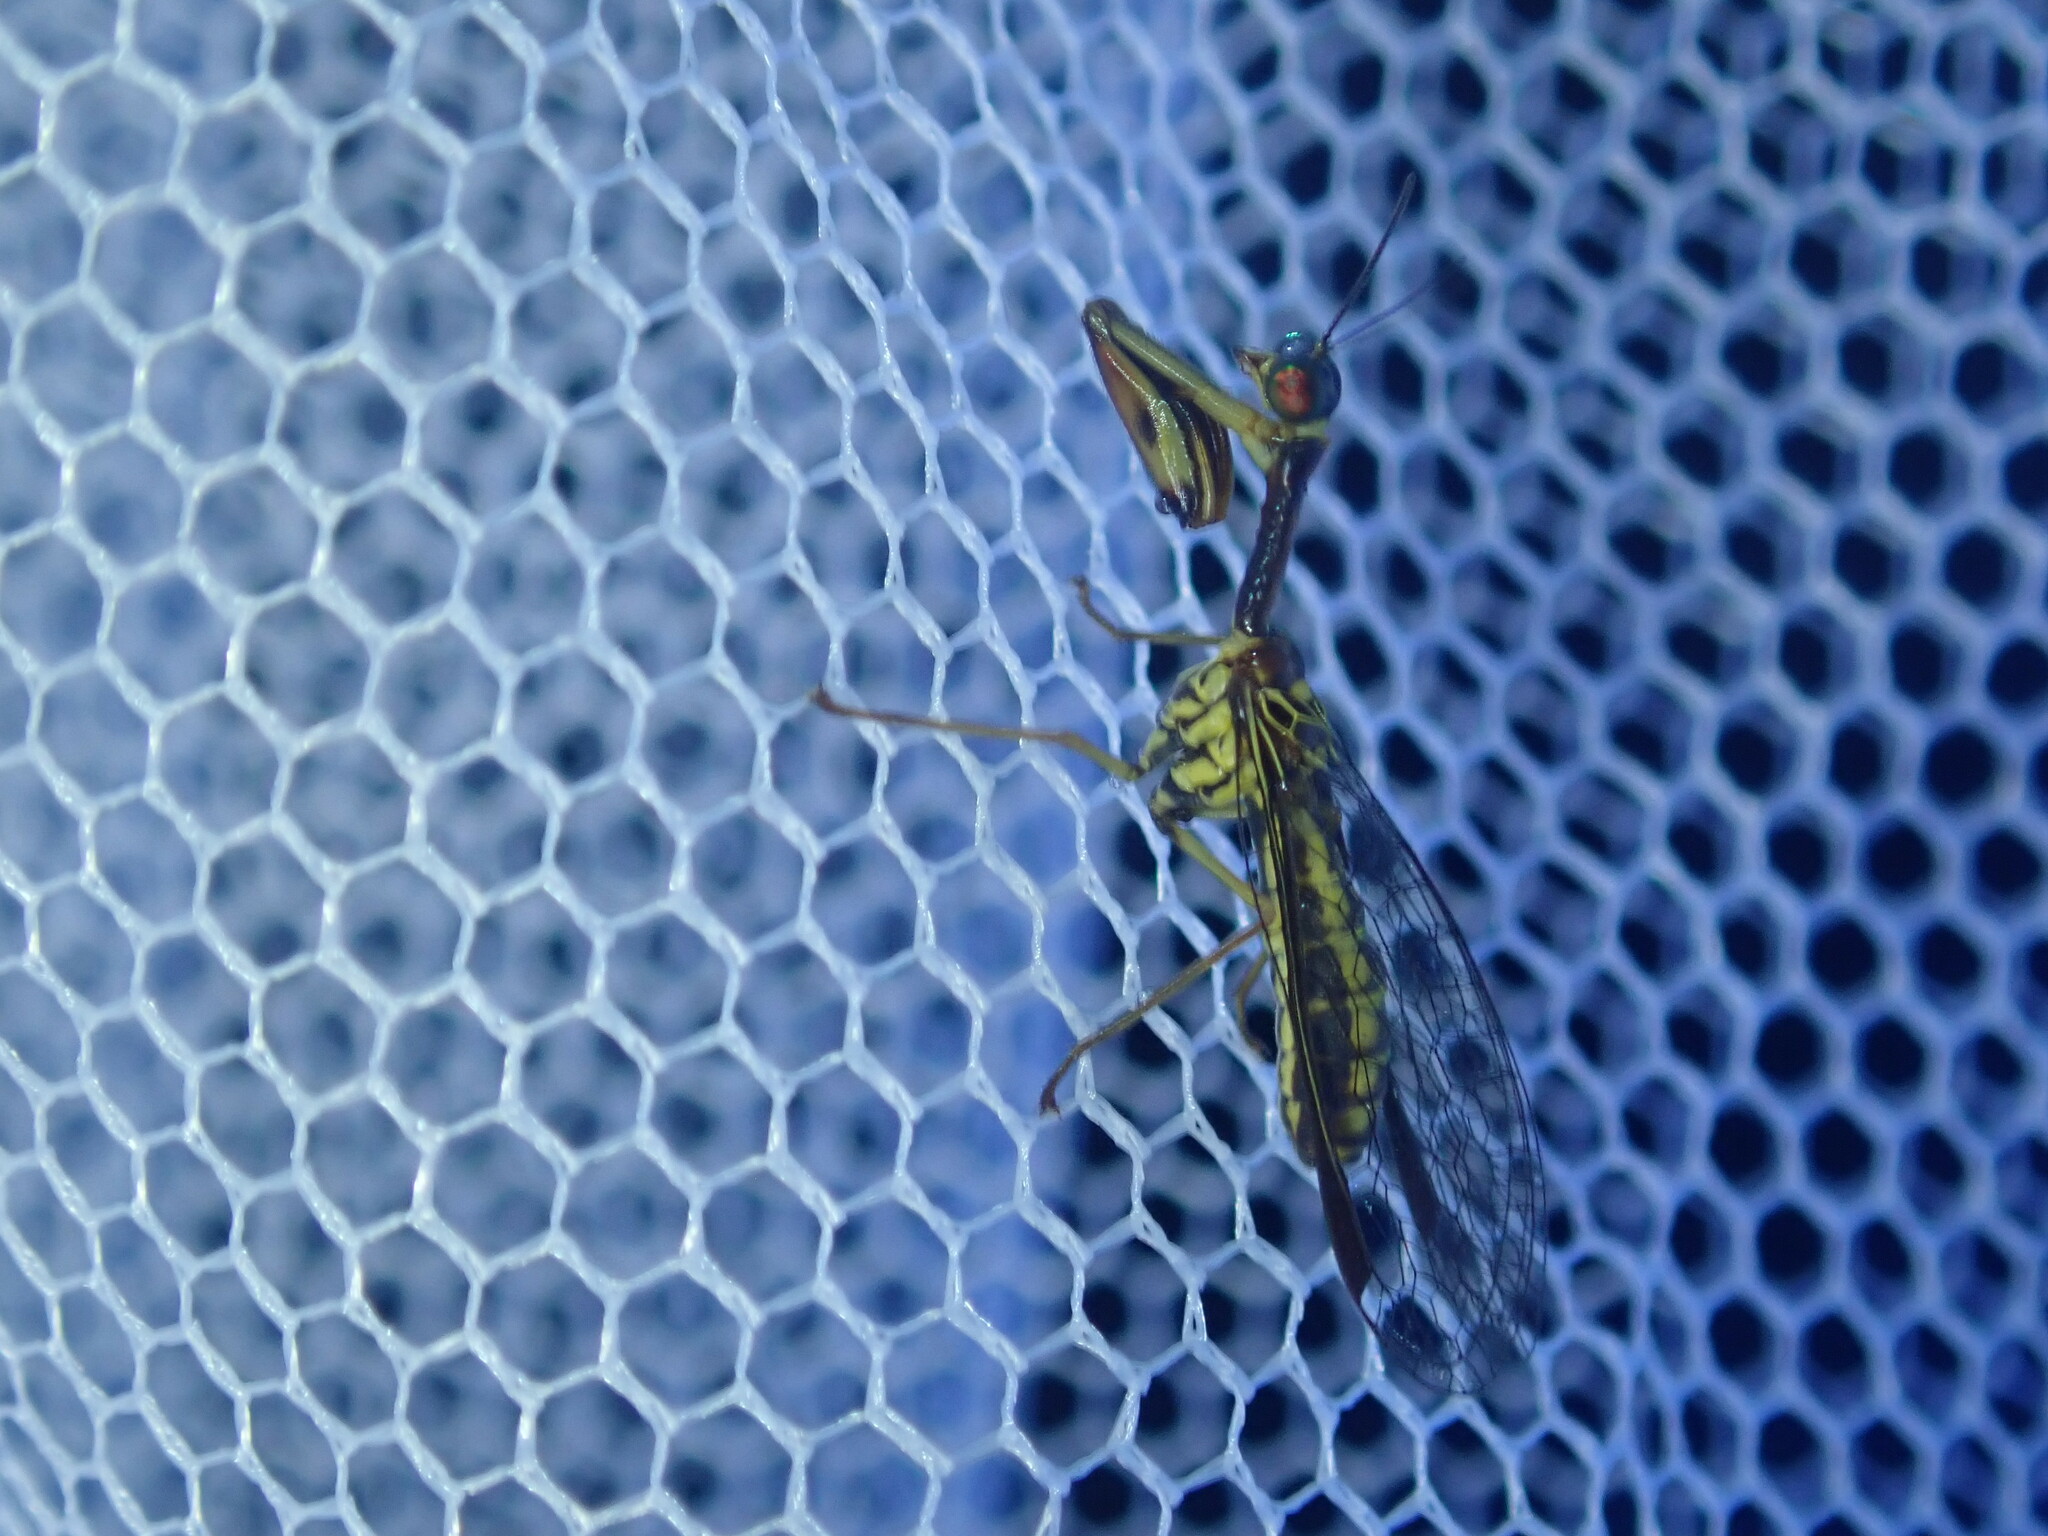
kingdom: Animalia
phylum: Arthropoda
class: Insecta
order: Neuroptera
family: Mantispidae
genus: Spaminta
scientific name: Spaminta minjerribae
